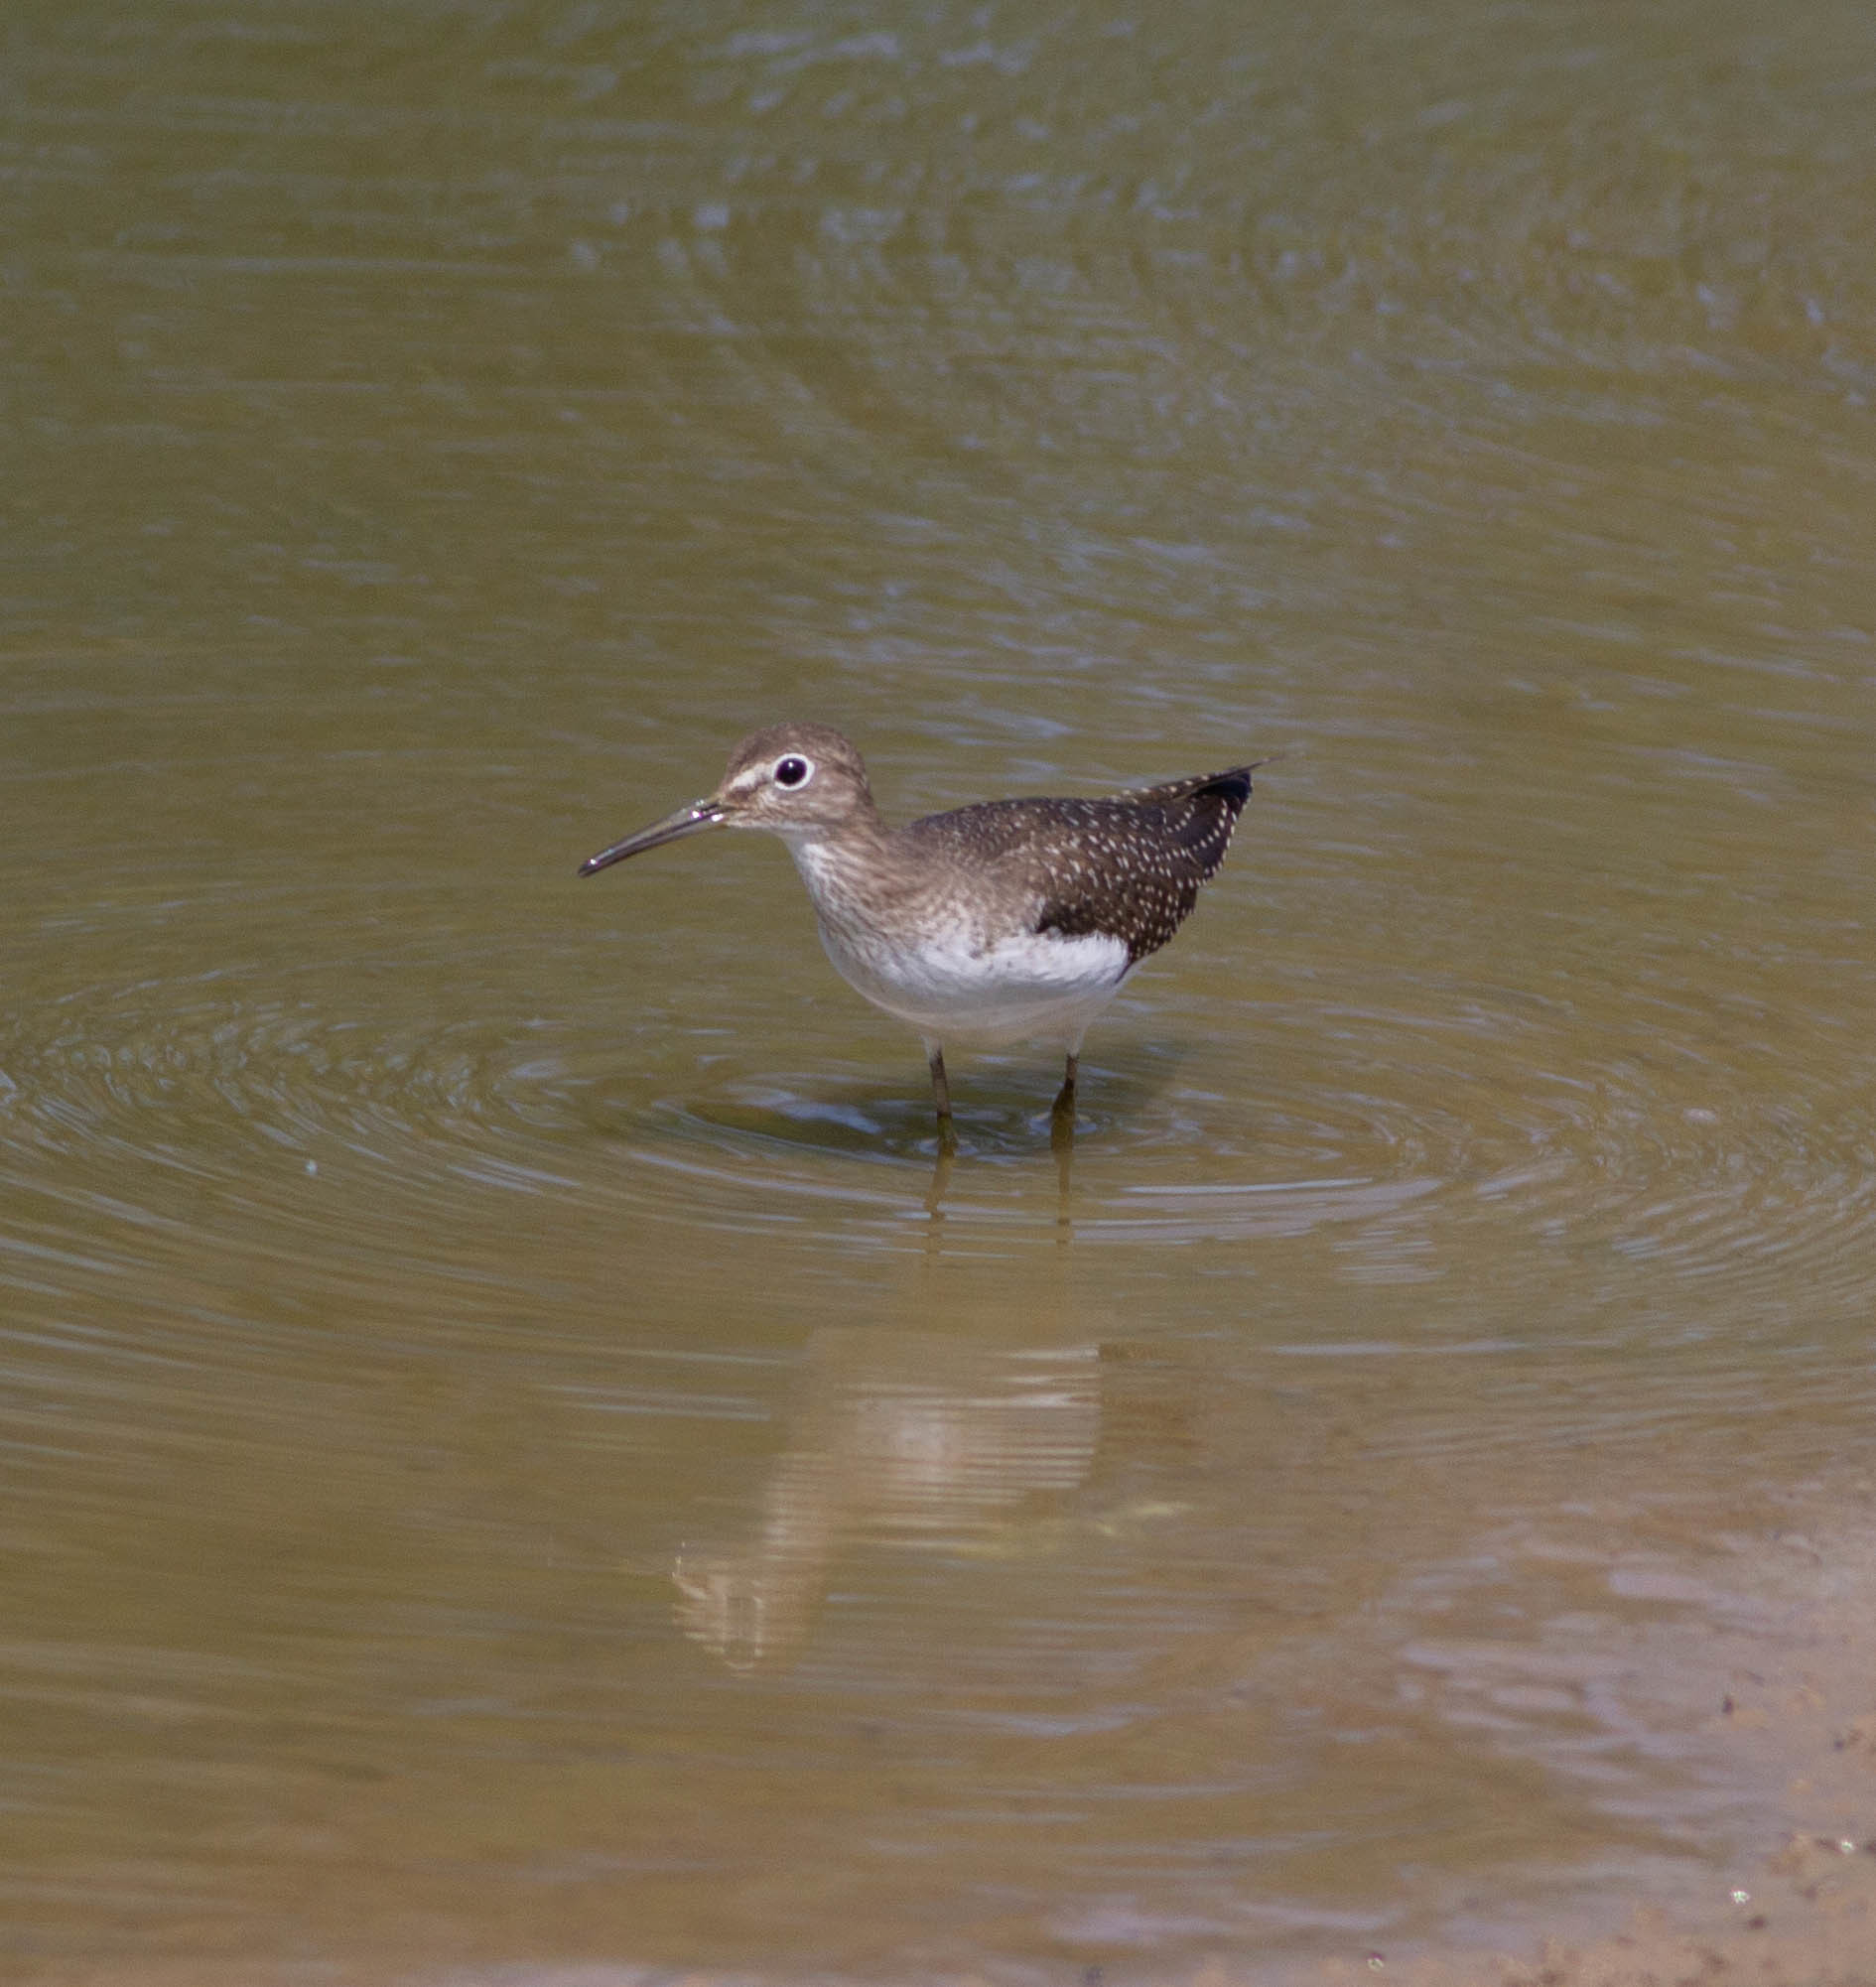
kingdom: Animalia
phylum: Chordata
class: Aves
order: Charadriiformes
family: Scolopacidae
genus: Tringa
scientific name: Tringa solitaria
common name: Solitary sandpiper
